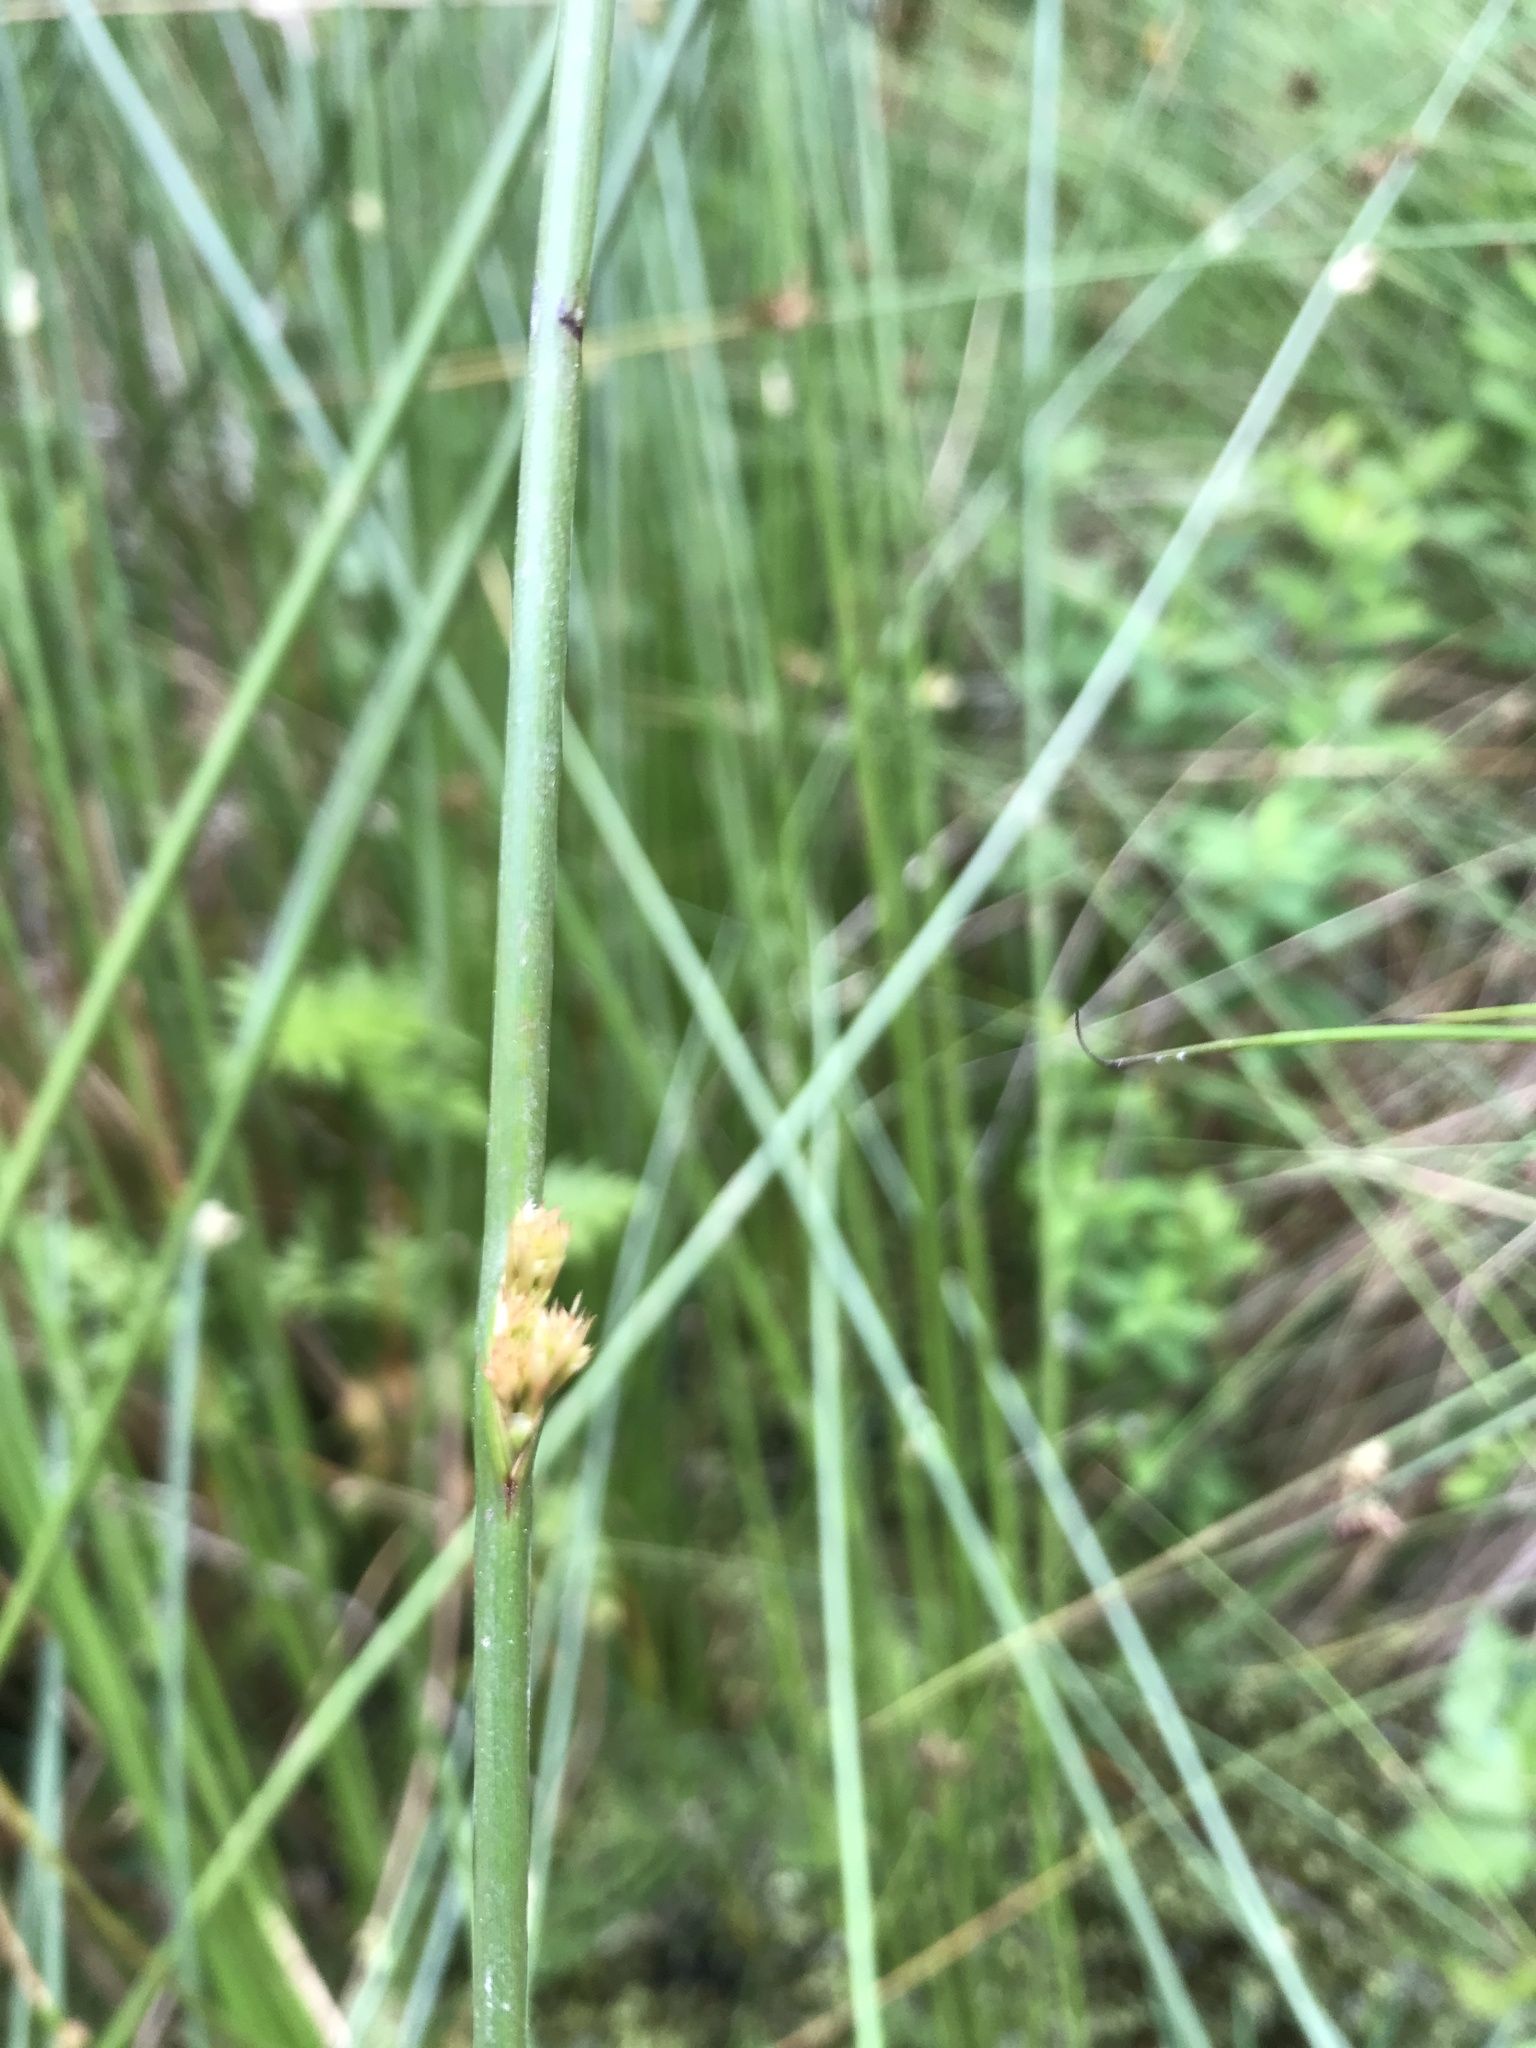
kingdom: Plantae
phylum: Tracheophyta
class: Liliopsida
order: Poales
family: Juncaceae
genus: Juncus
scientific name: Juncus effusus
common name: Soft rush
